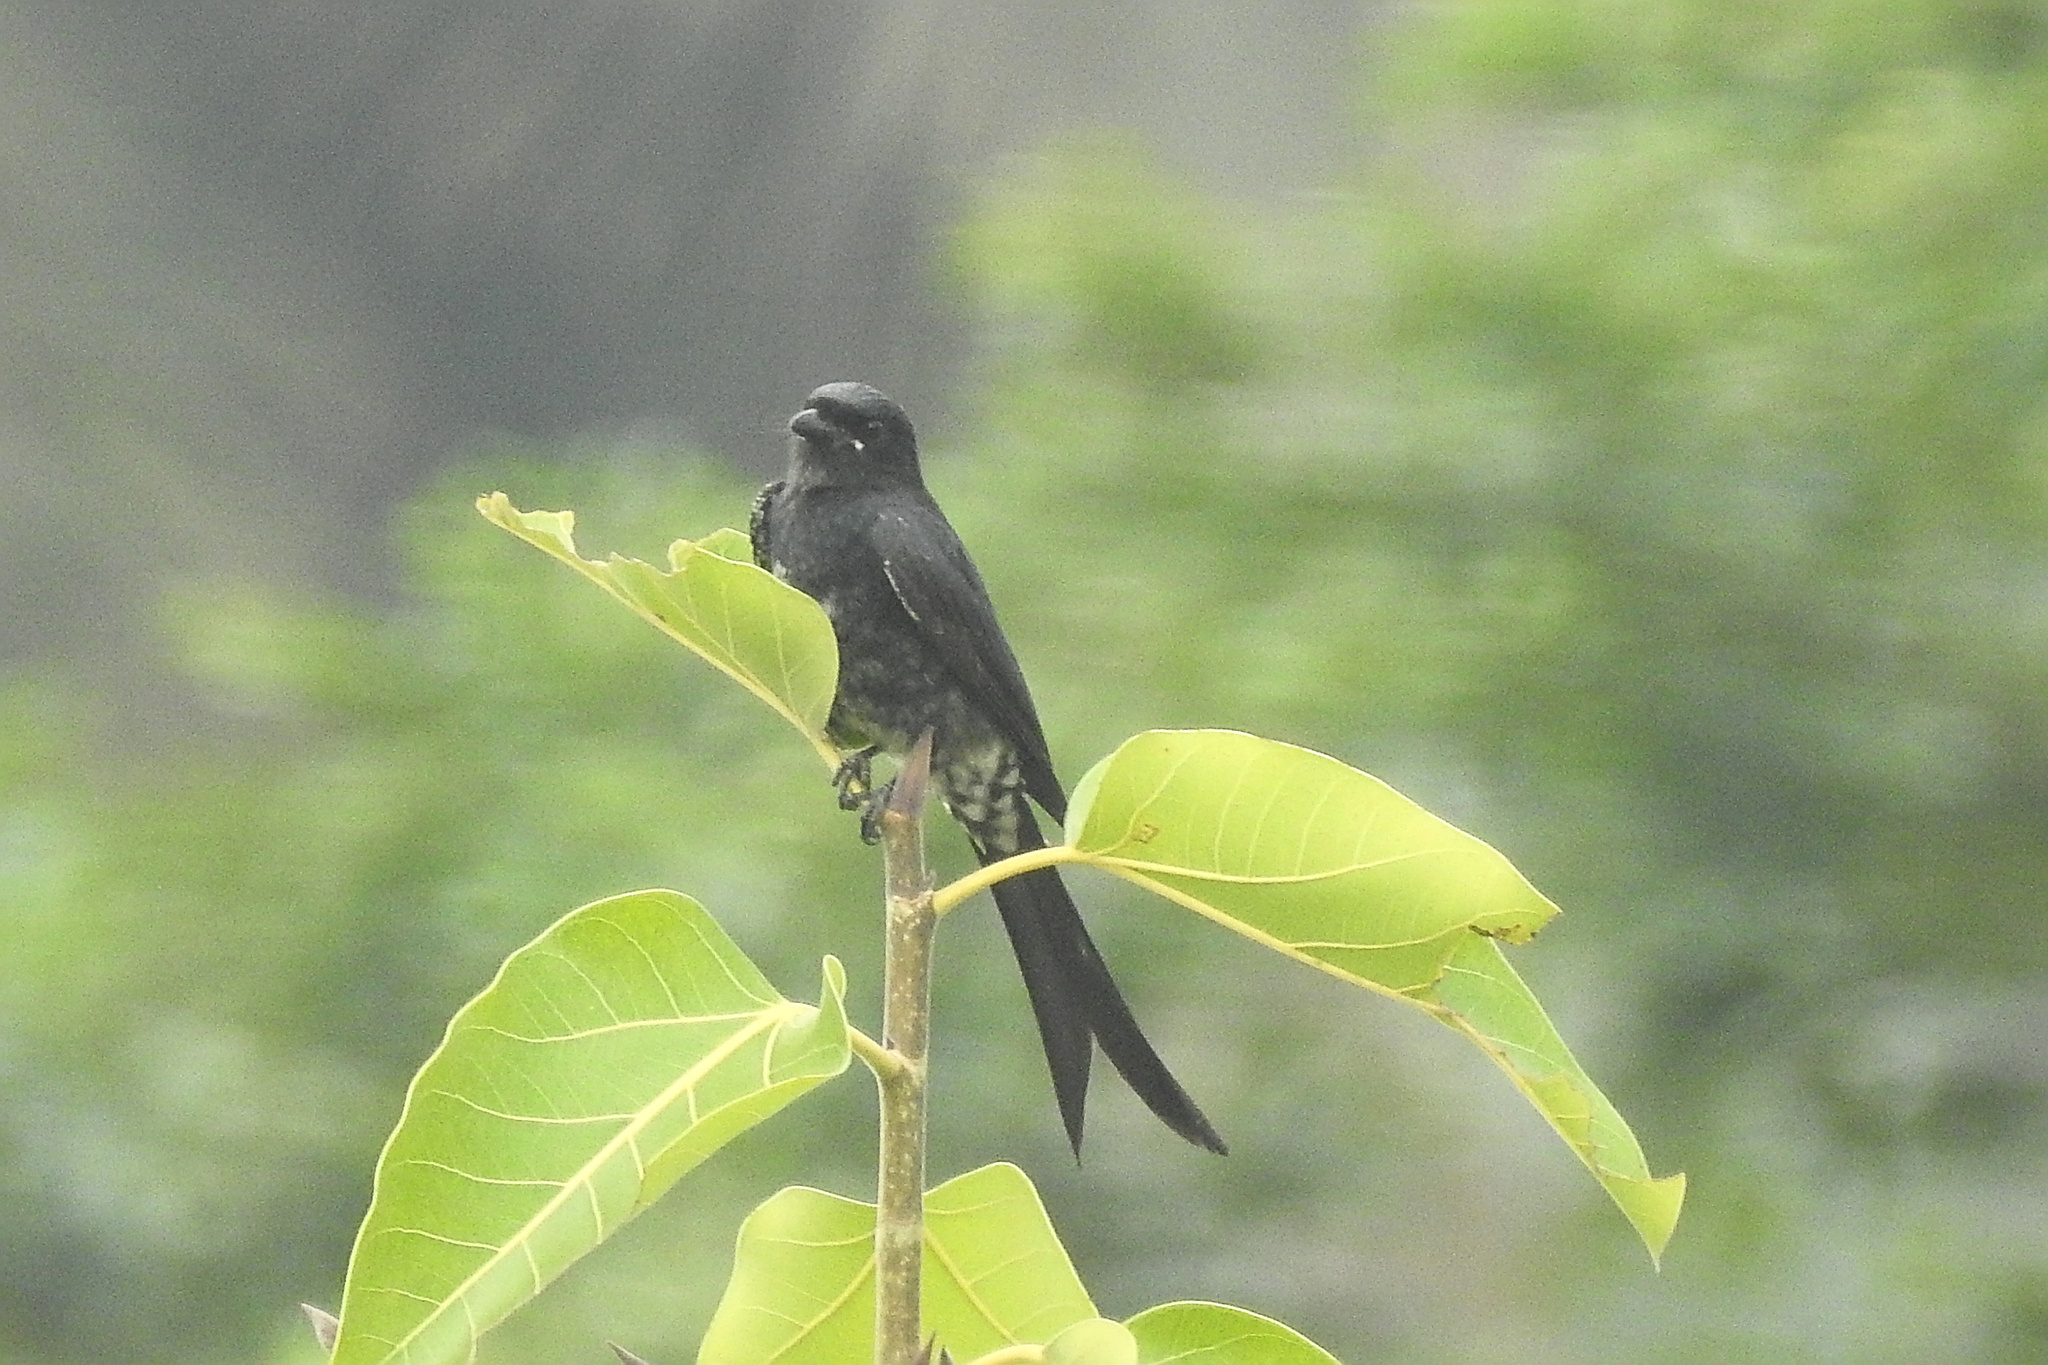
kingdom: Animalia
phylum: Chordata
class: Aves
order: Passeriformes
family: Dicruridae
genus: Dicrurus
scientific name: Dicrurus macrocercus
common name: Black drongo
